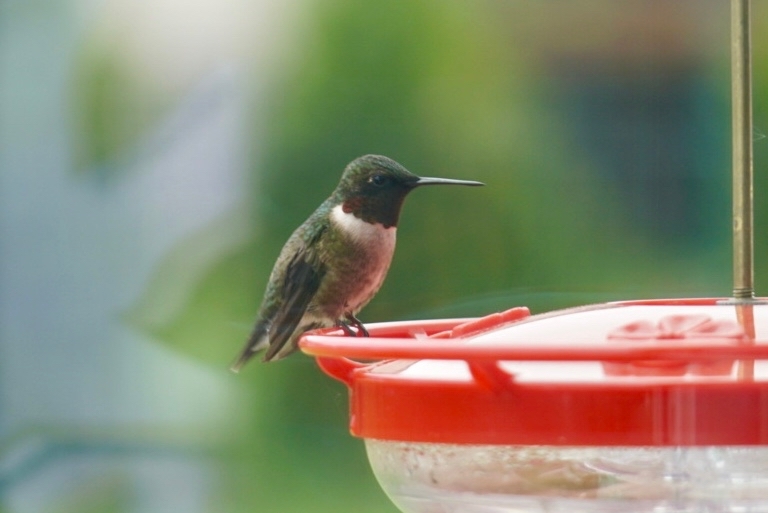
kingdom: Animalia
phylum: Chordata
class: Aves
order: Apodiformes
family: Trochilidae
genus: Archilochus
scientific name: Archilochus colubris
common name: Ruby-throated hummingbird
